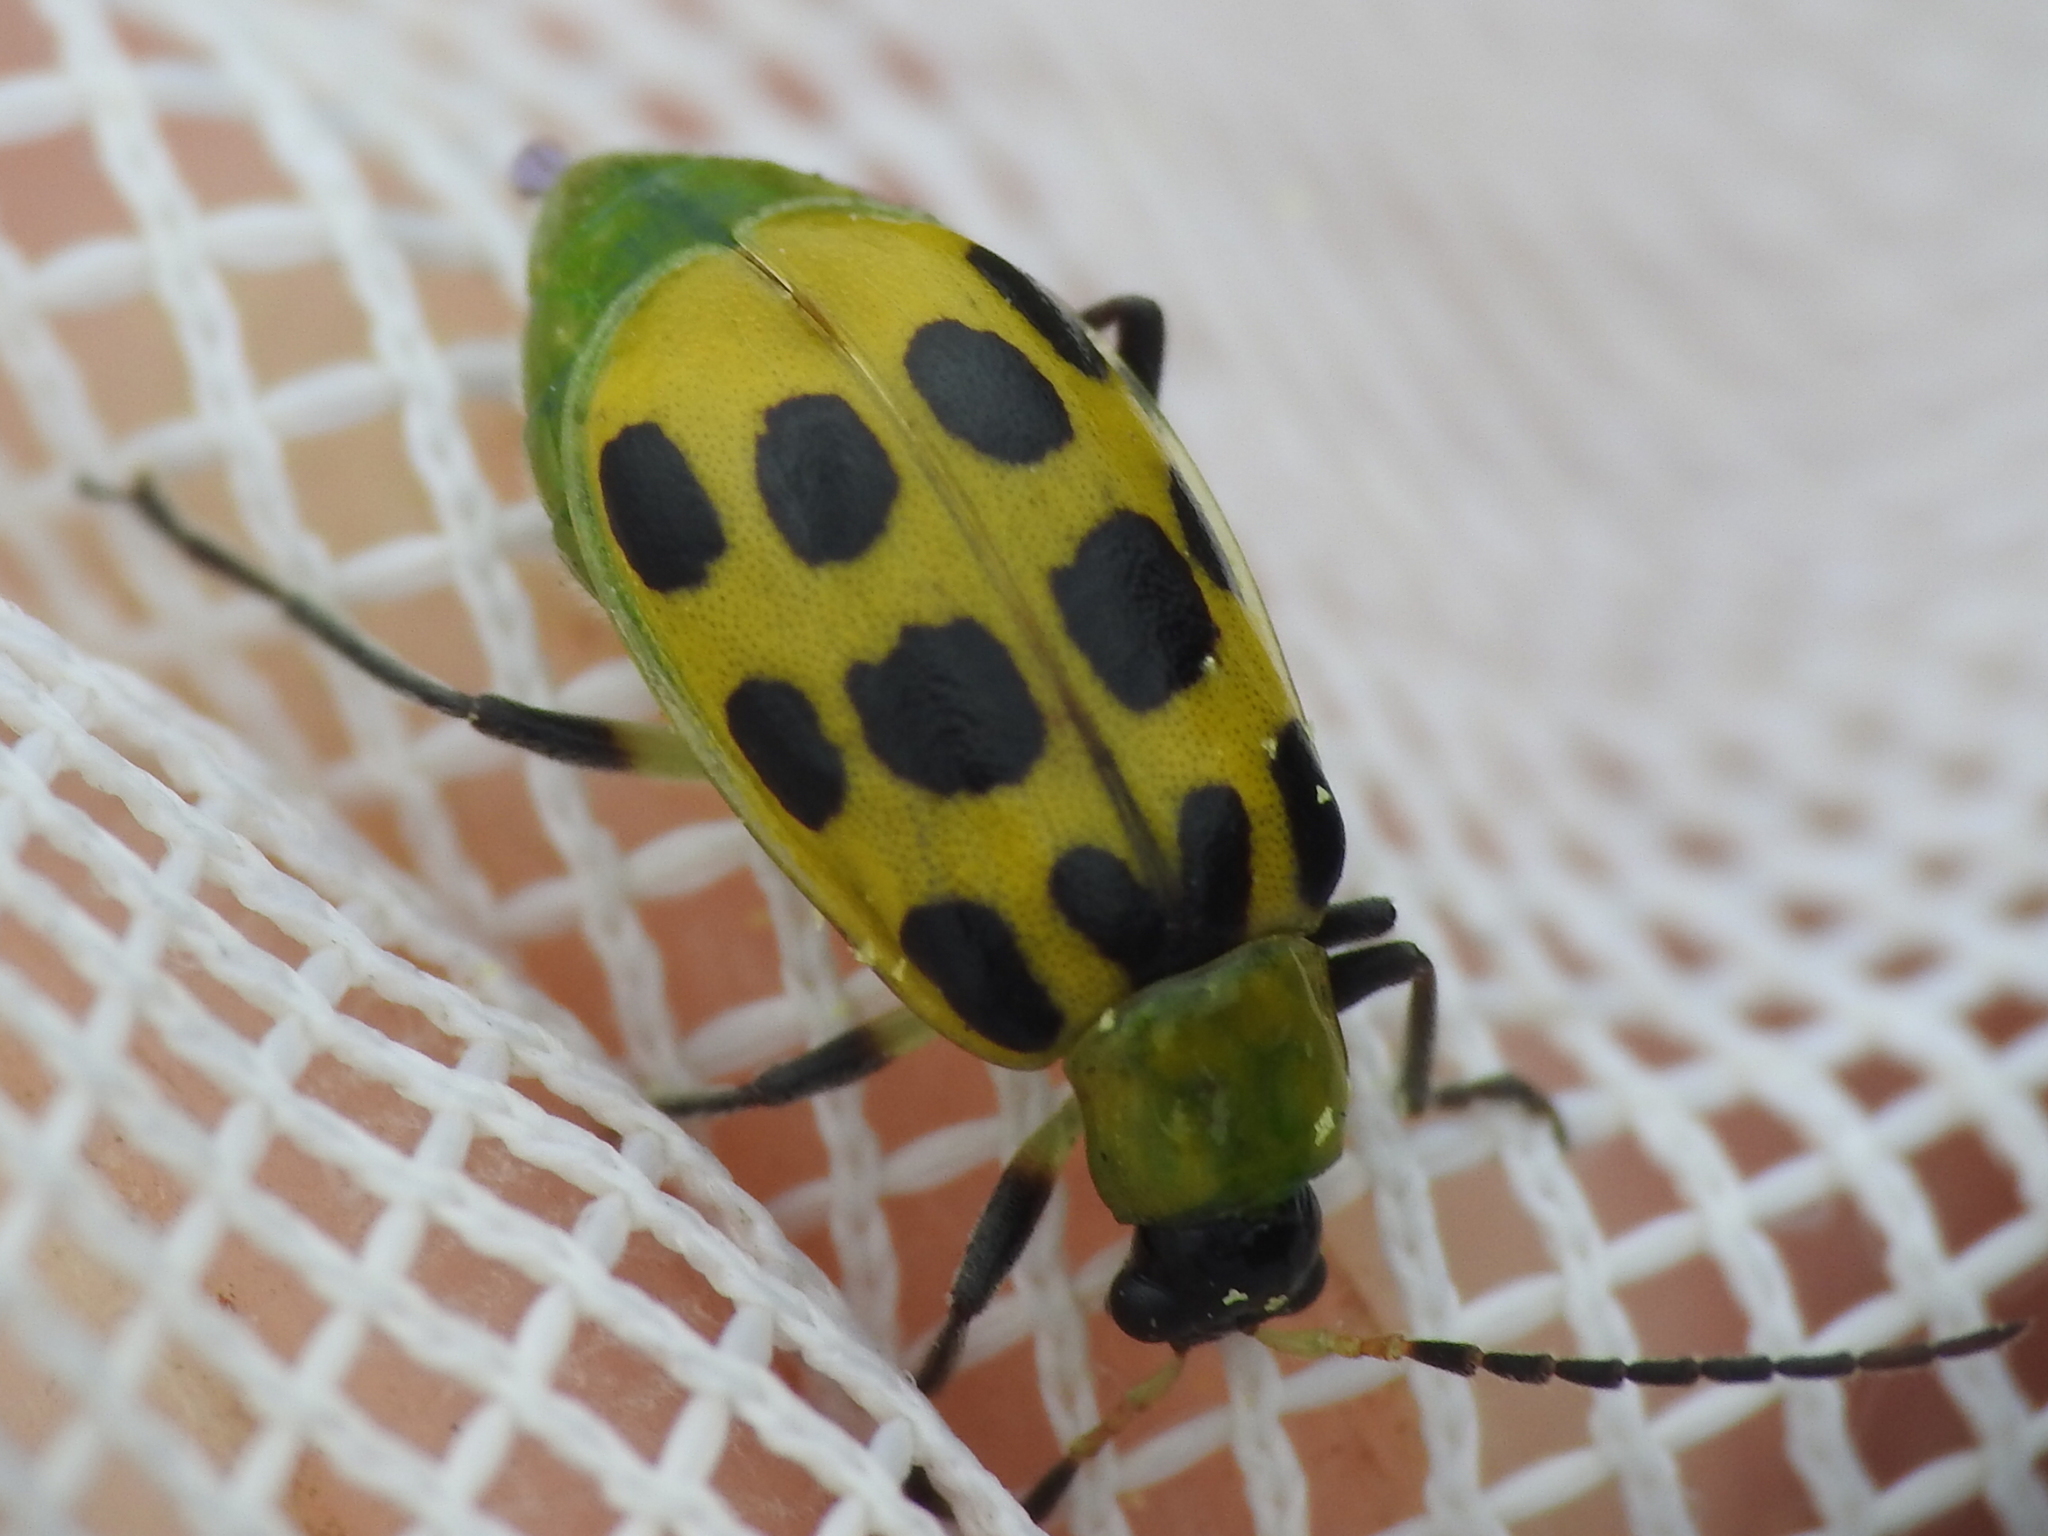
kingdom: Animalia
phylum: Arthropoda
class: Insecta
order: Coleoptera
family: Chrysomelidae
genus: Diabrotica
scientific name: Diabrotica undecimpunctata
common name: Spotted cucumber beetle
